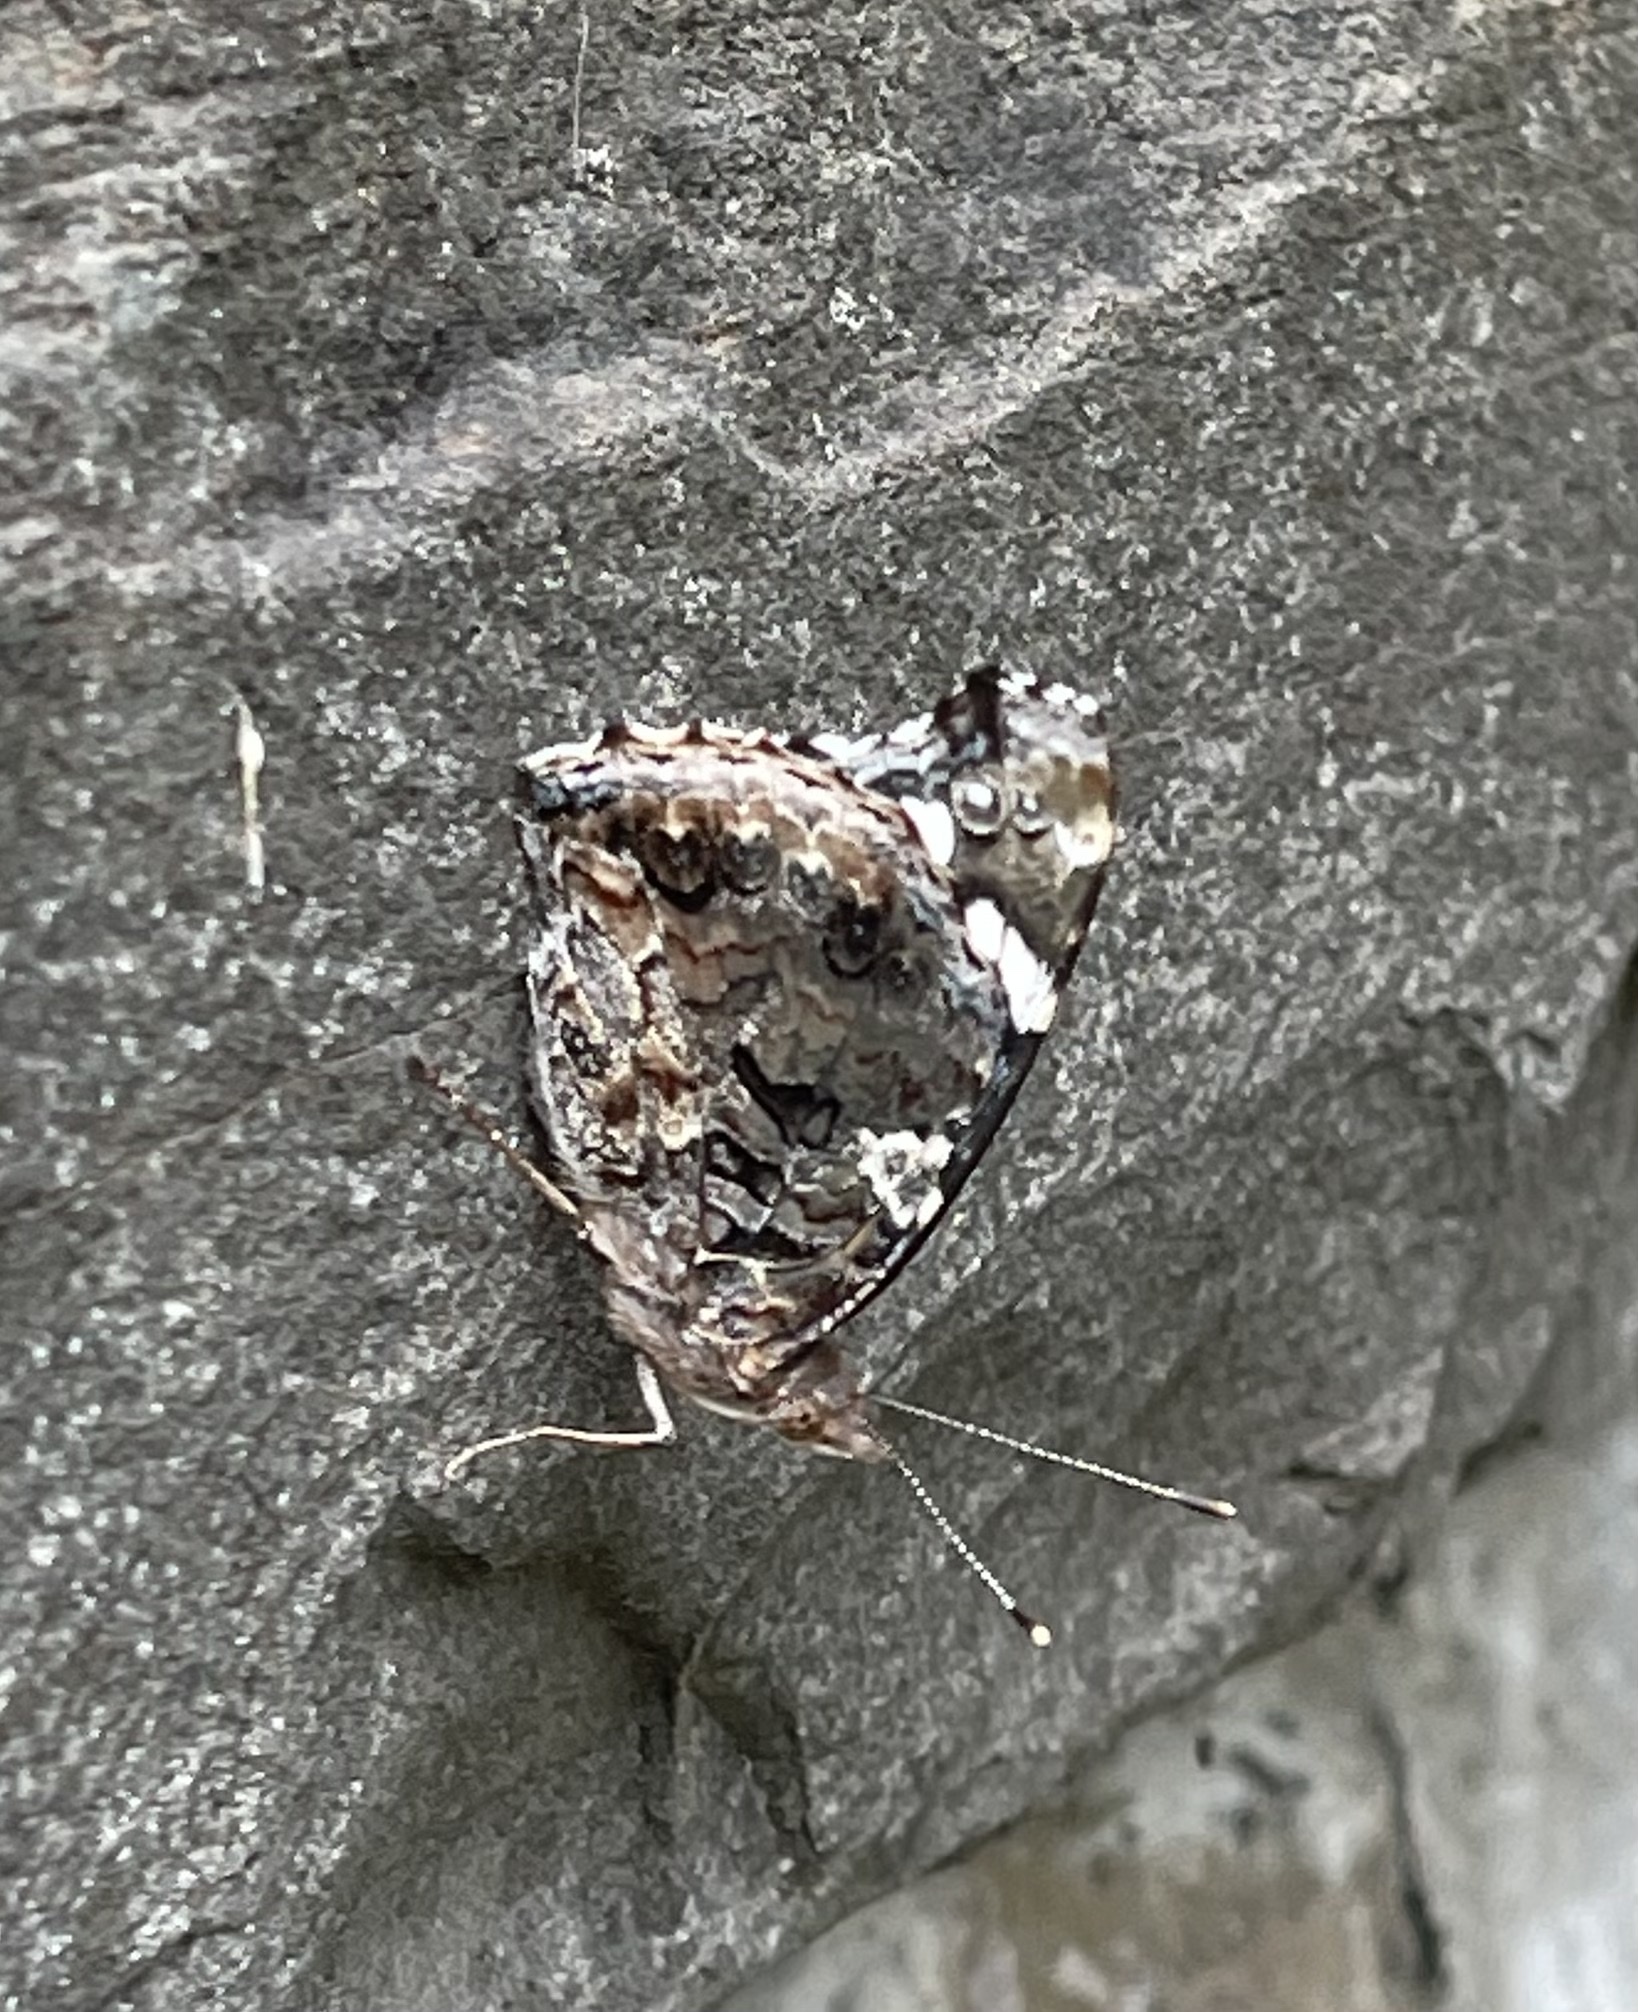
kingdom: Animalia
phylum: Arthropoda
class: Insecta
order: Lepidoptera
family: Nymphalidae
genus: Vanessa
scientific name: Vanessa atalanta
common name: Red admiral
